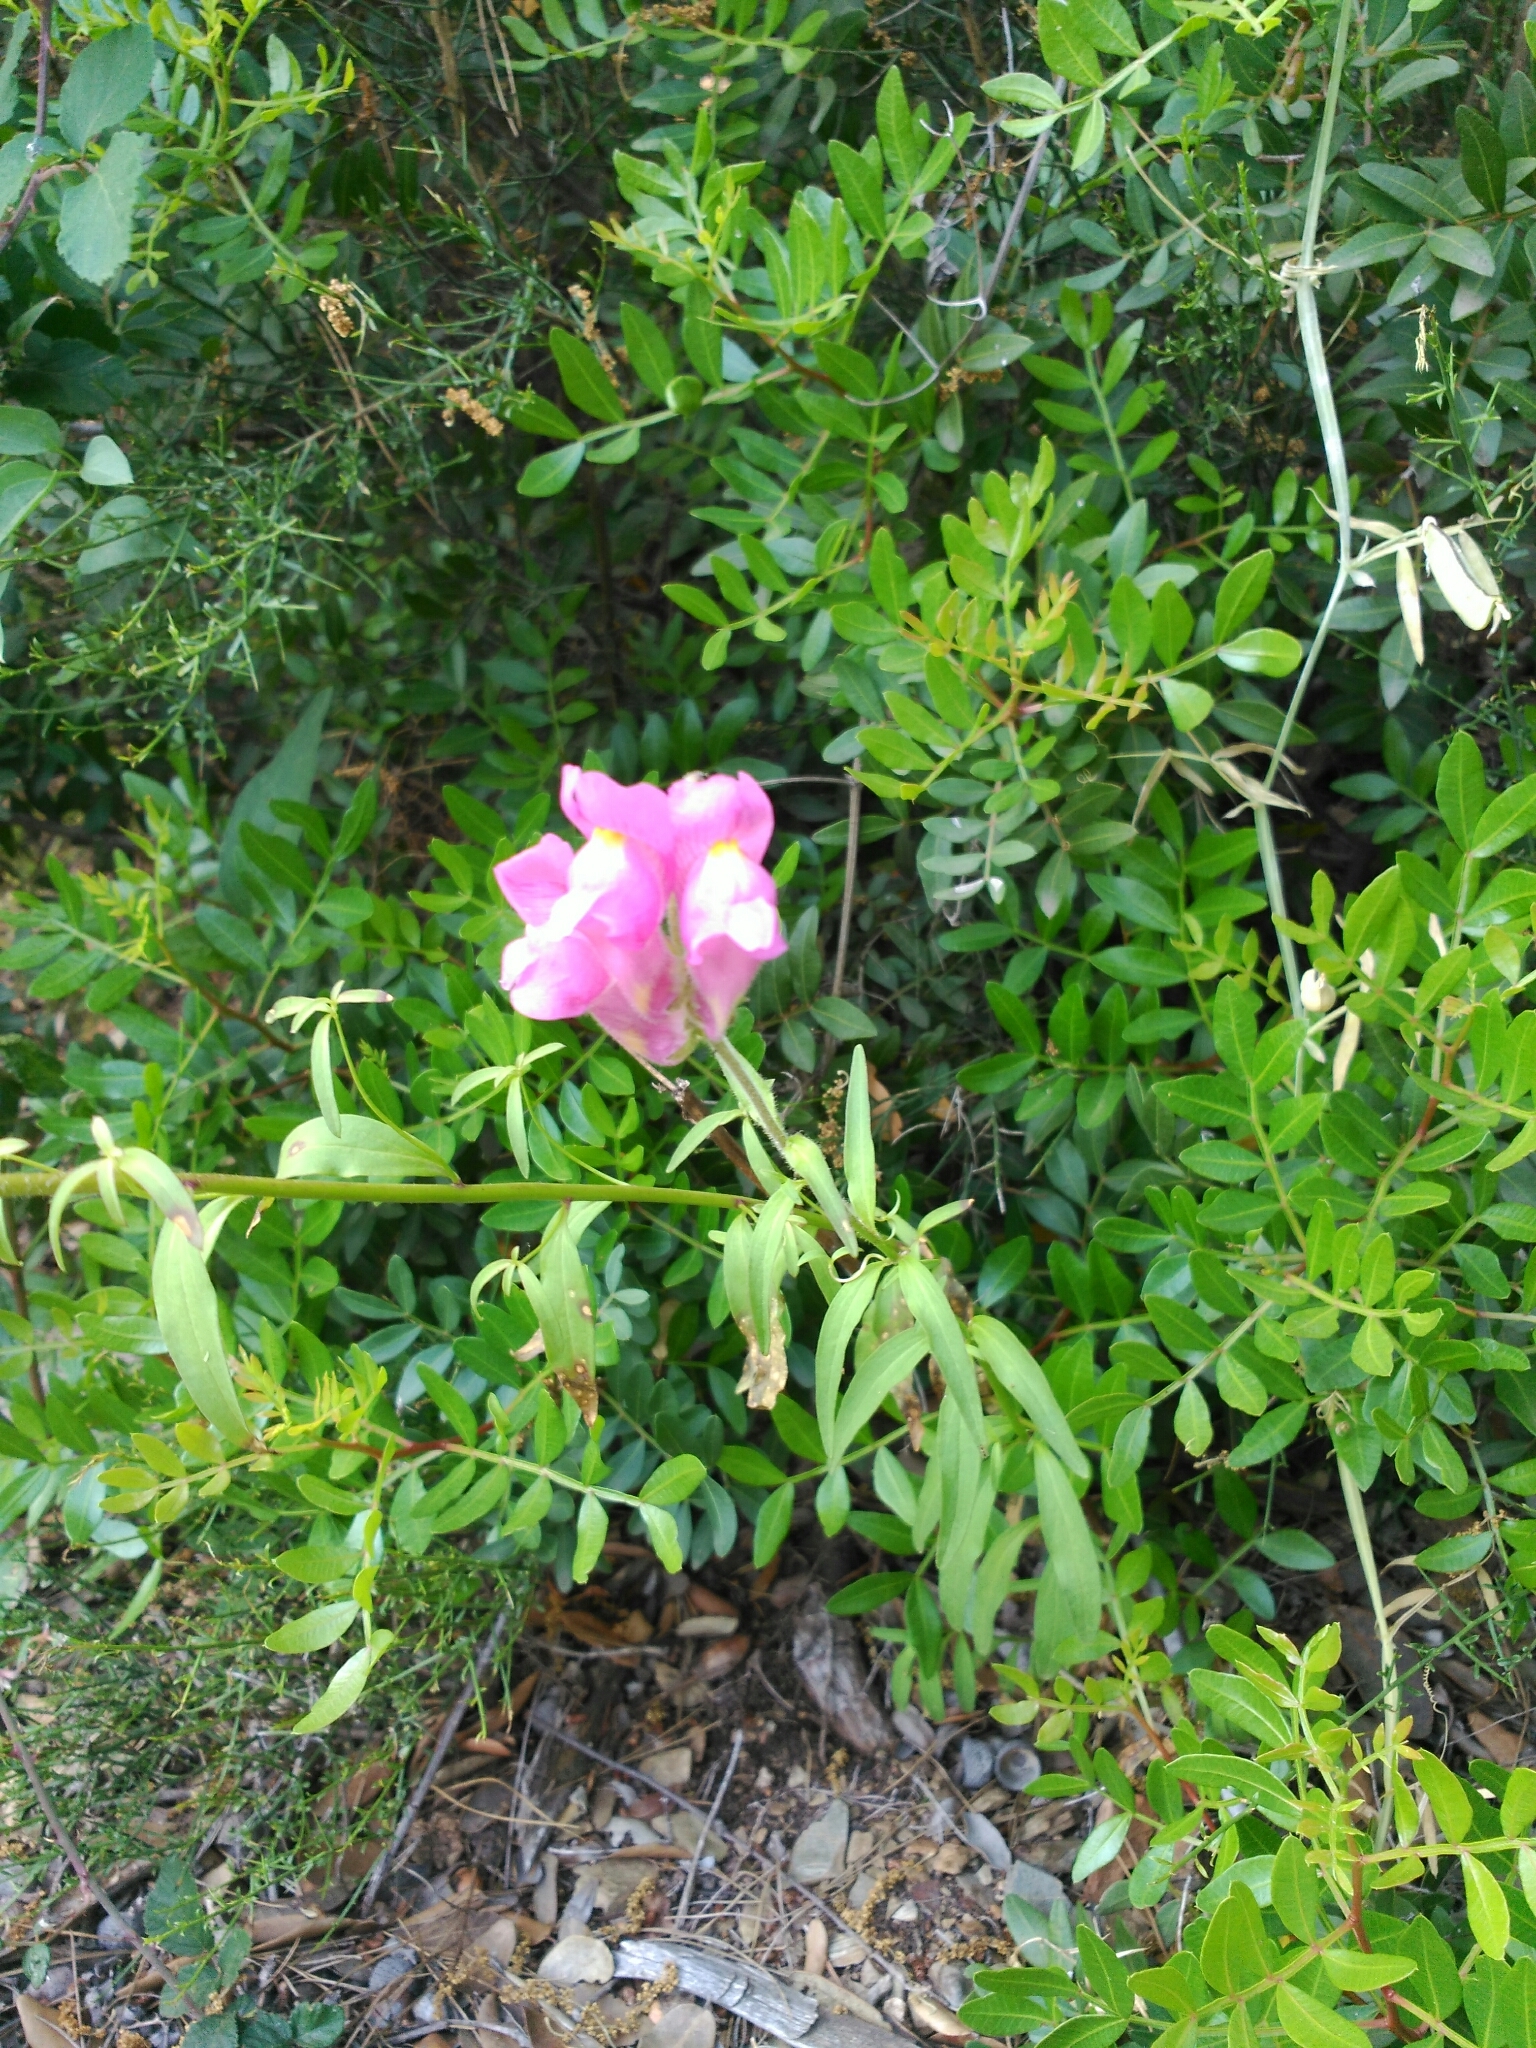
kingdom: Plantae
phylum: Tracheophyta
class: Magnoliopsida
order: Lamiales
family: Plantaginaceae
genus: Antirrhinum
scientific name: Antirrhinum majus
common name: Snapdragon
